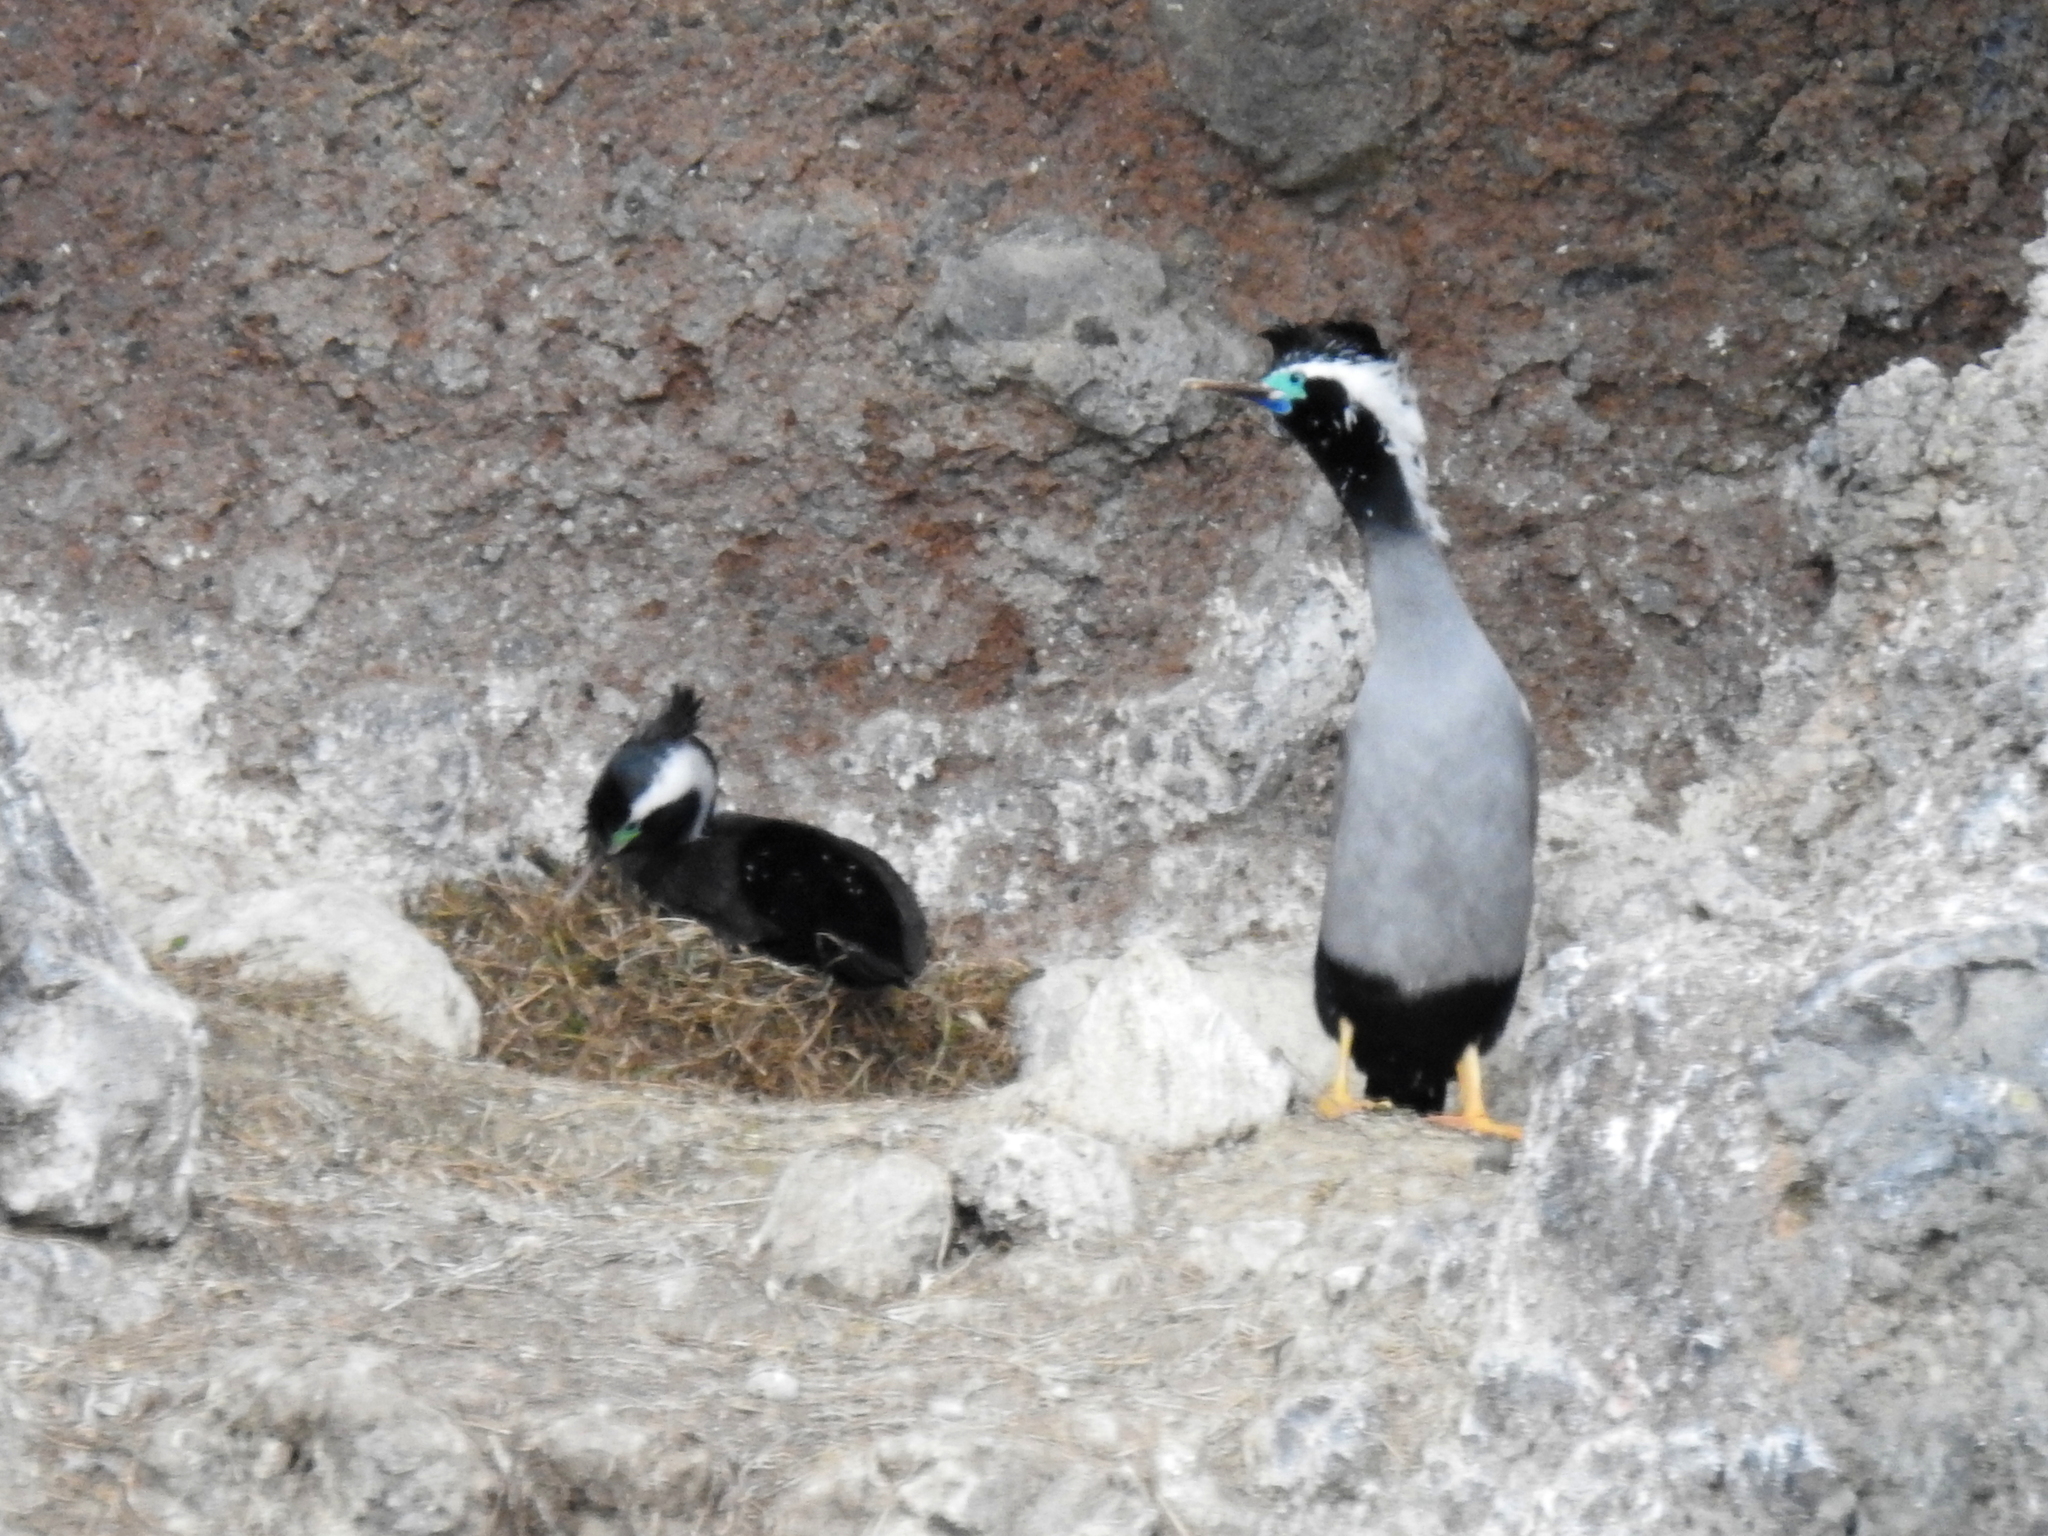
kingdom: Animalia
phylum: Chordata
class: Aves
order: Suliformes
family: Phalacrocoracidae
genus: Phalacrocorax
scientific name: Phalacrocorax punctatus
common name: Spotted shag
